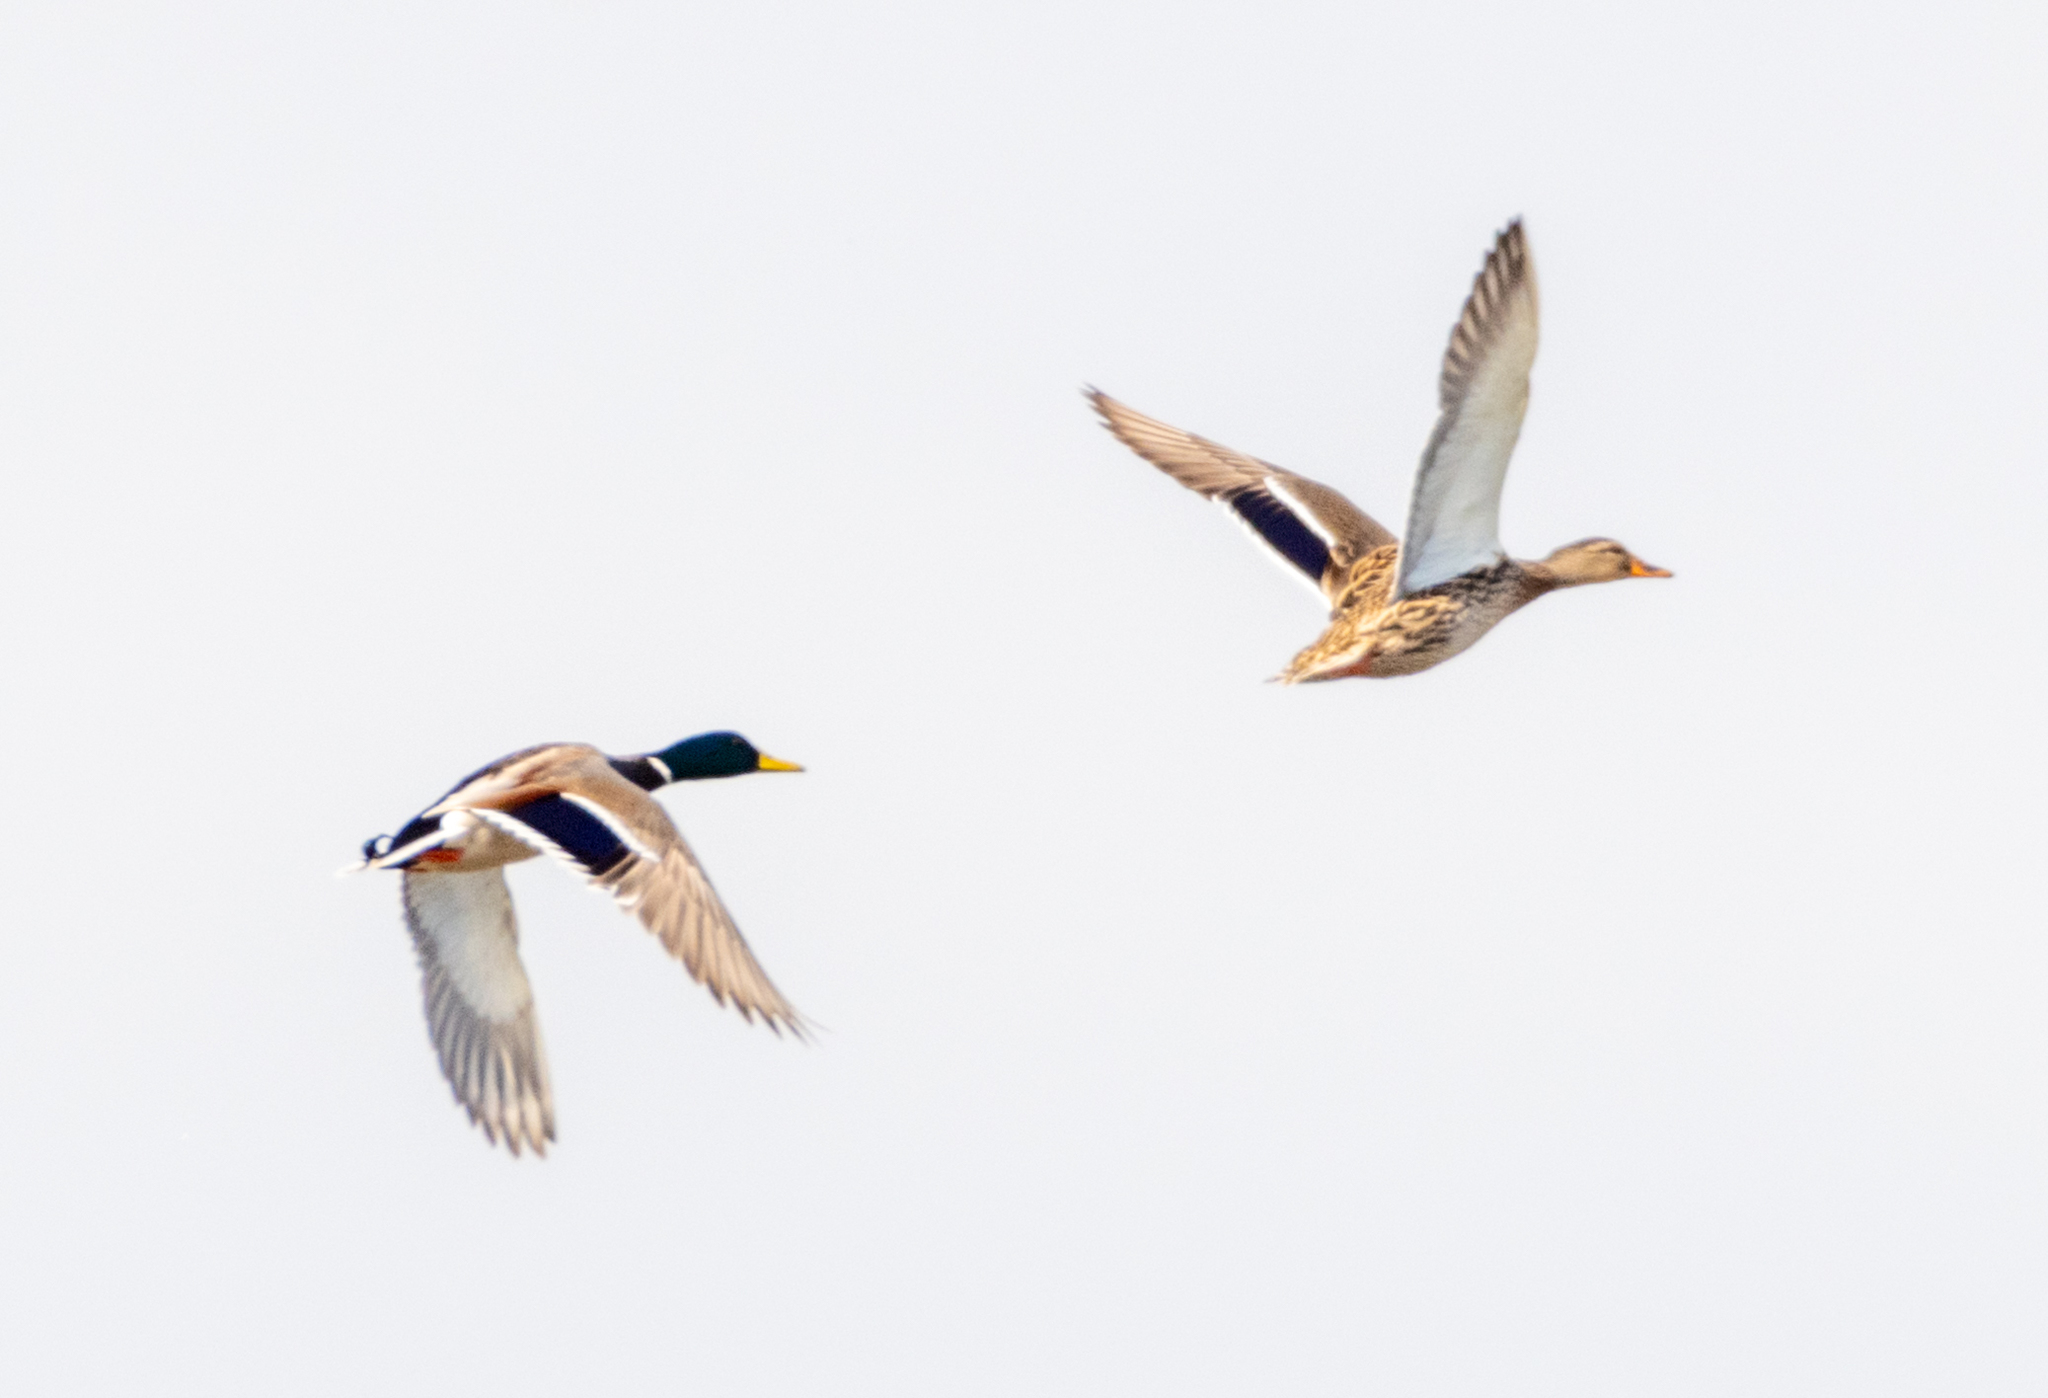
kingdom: Animalia
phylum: Chordata
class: Aves
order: Anseriformes
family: Anatidae
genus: Anas
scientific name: Anas platyrhynchos
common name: Mallard
